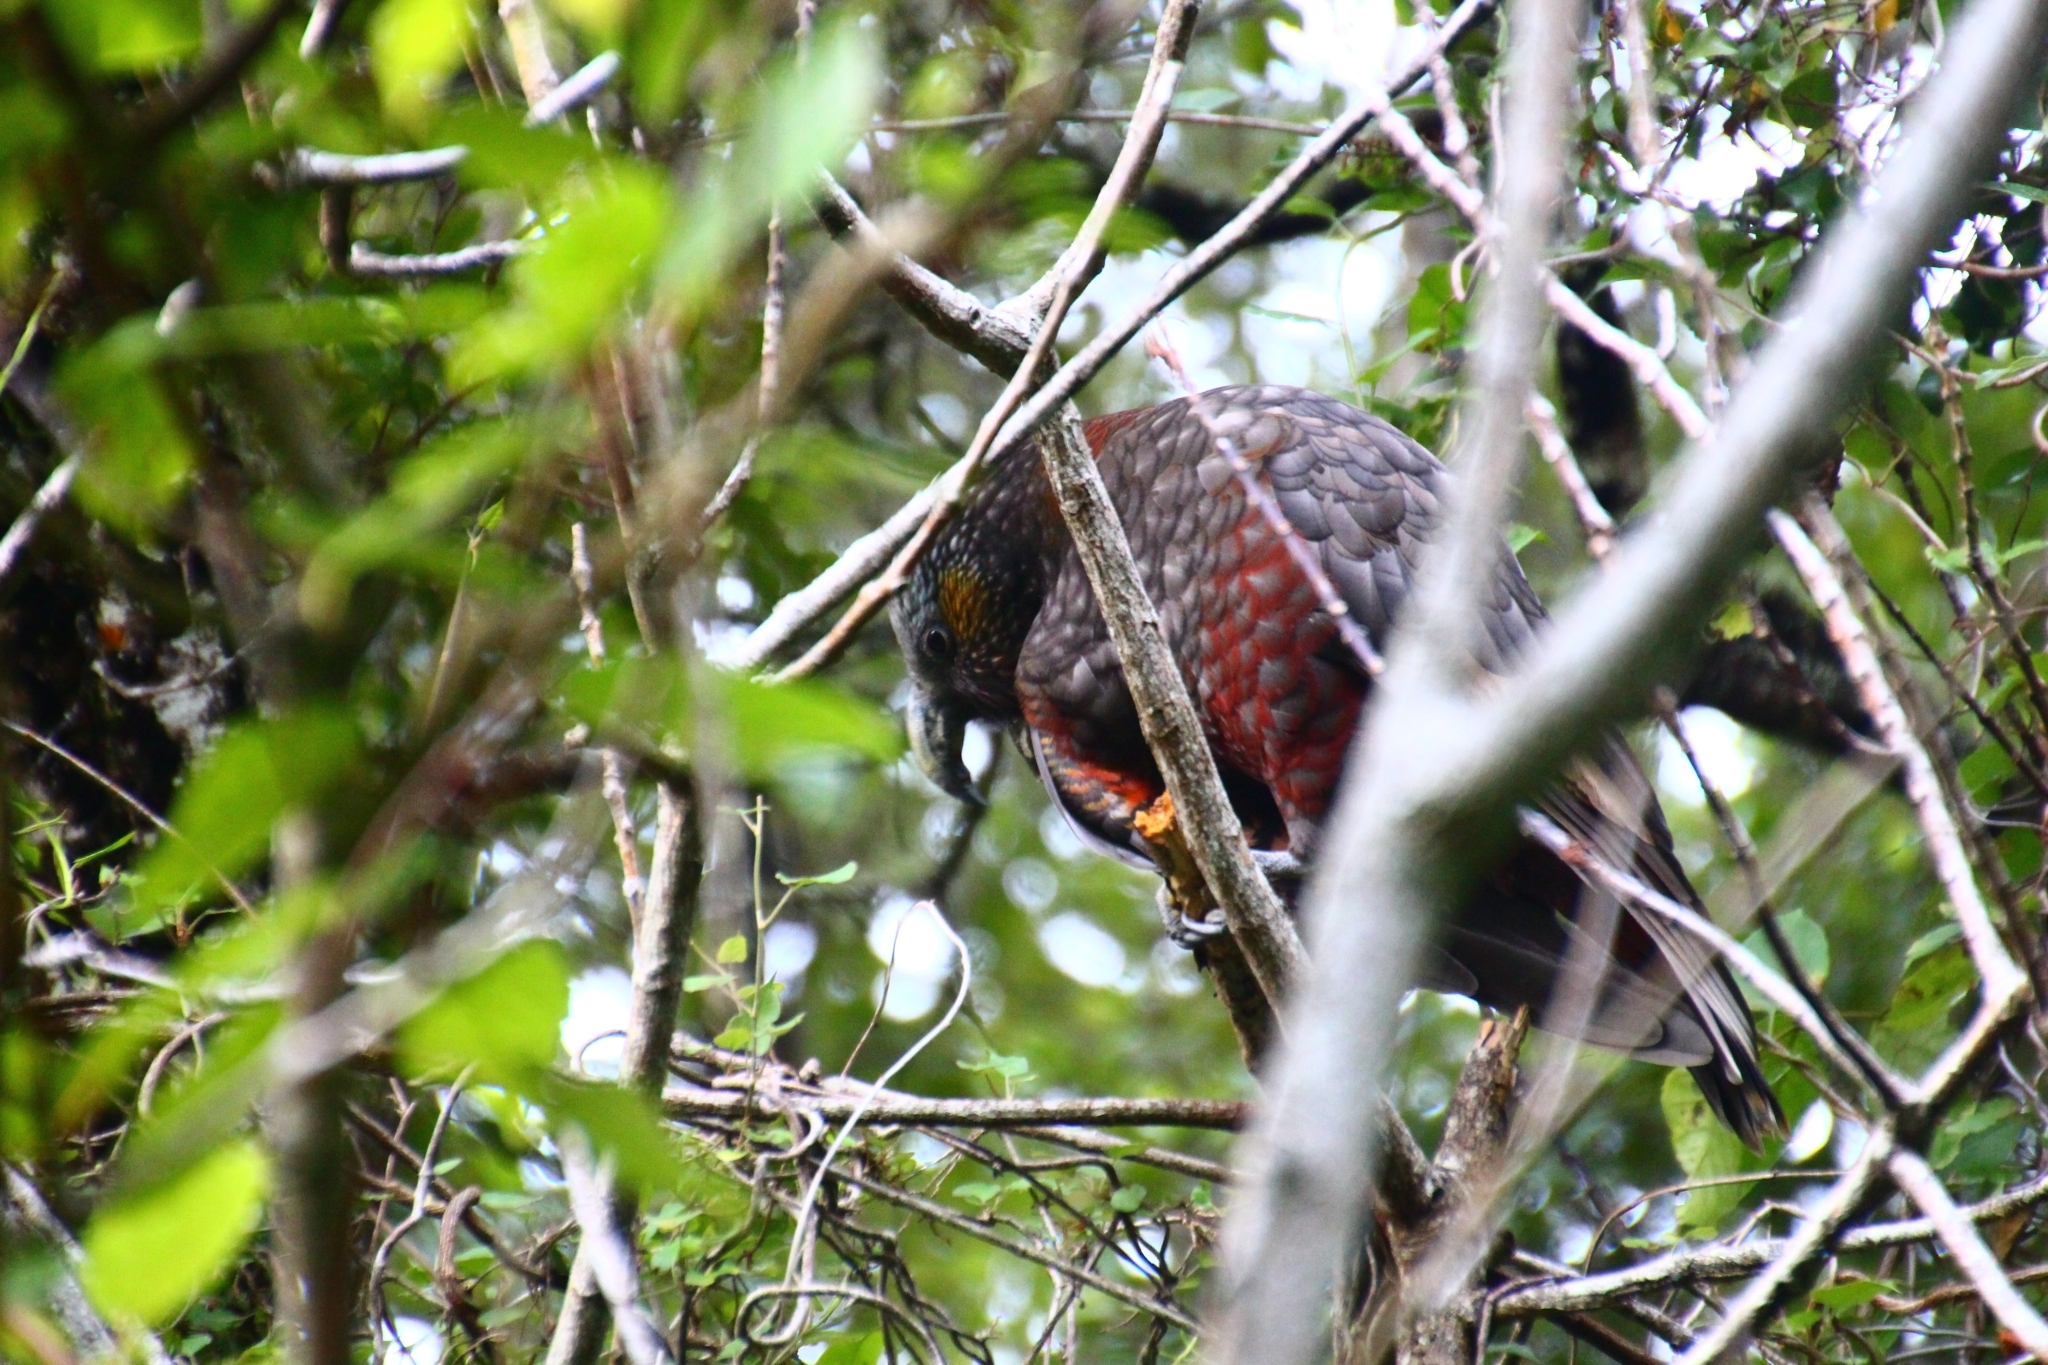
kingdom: Animalia
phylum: Chordata
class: Aves
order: Psittaciformes
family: Psittacidae
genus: Nestor
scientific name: Nestor meridionalis
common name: New zealand kaka
